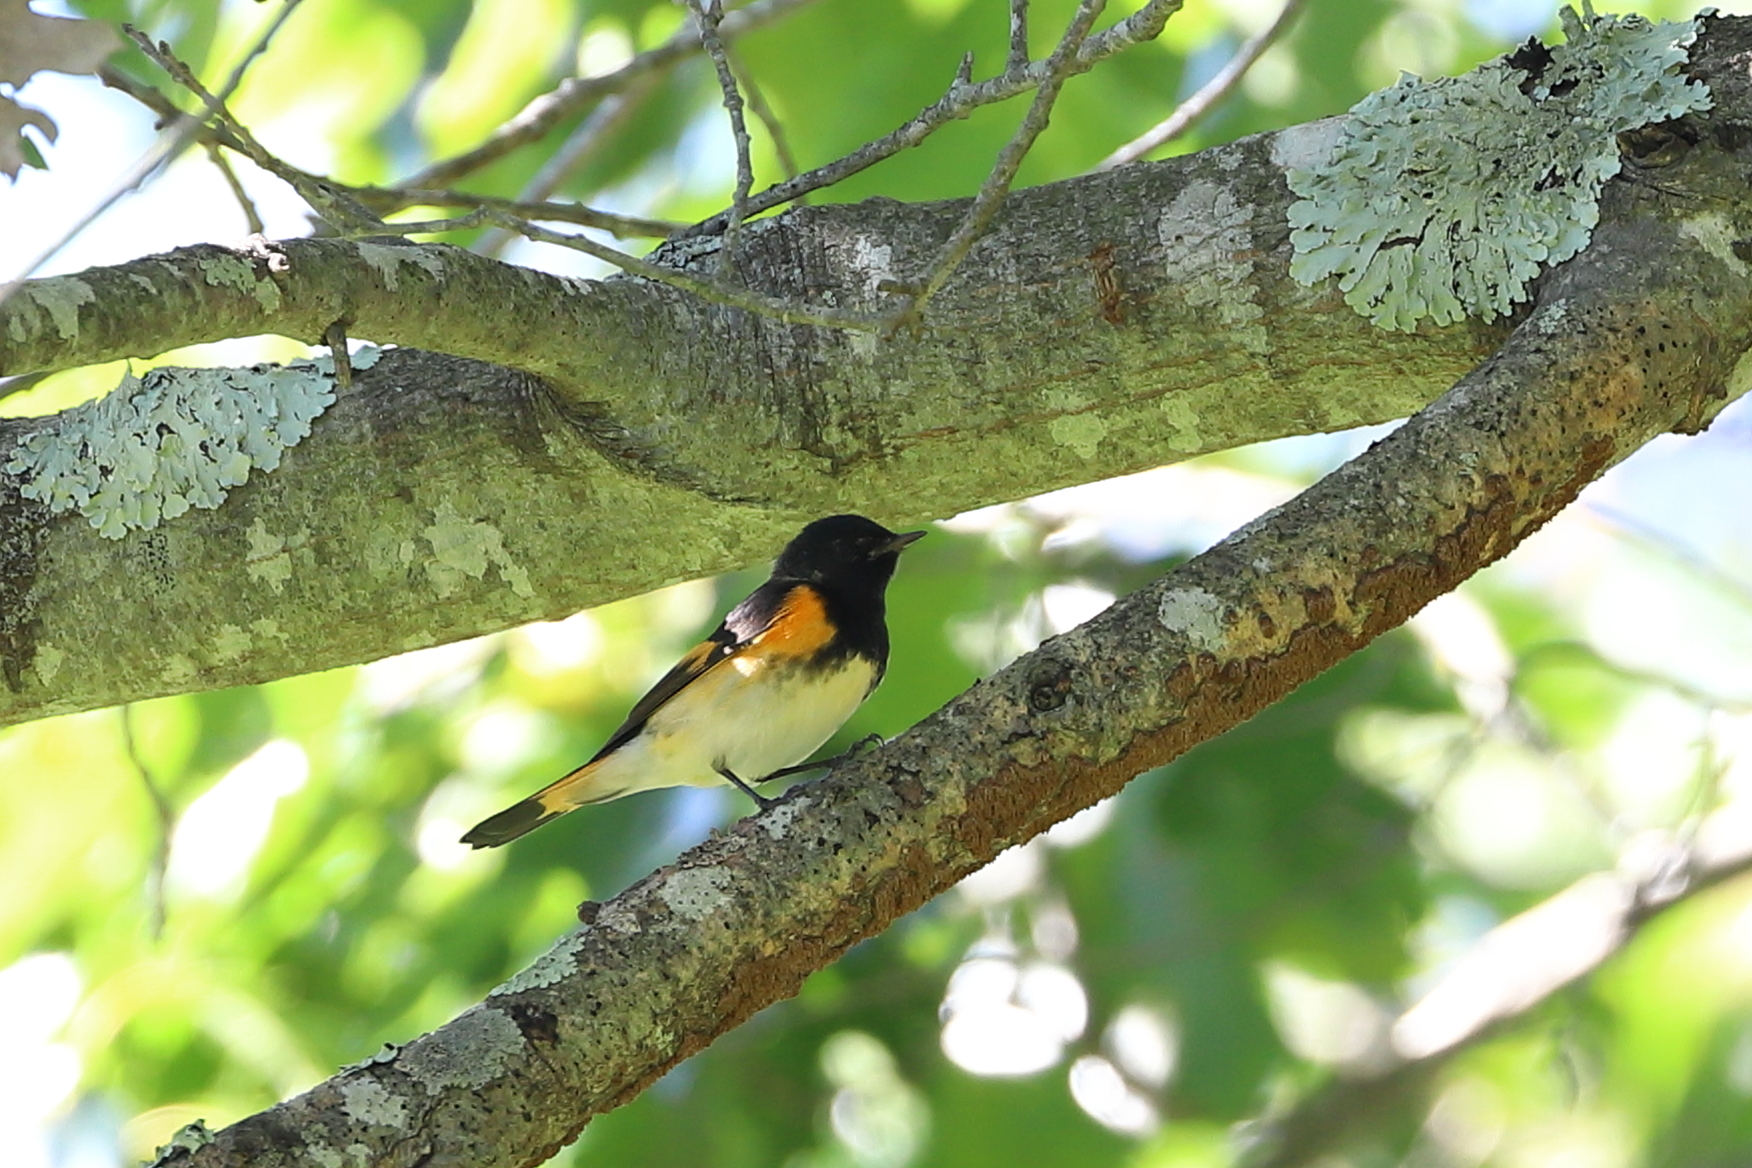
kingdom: Animalia
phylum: Chordata
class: Aves
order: Passeriformes
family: Parulidae
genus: Setophaga
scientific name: Setophaga ruticilla
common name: American redstart
